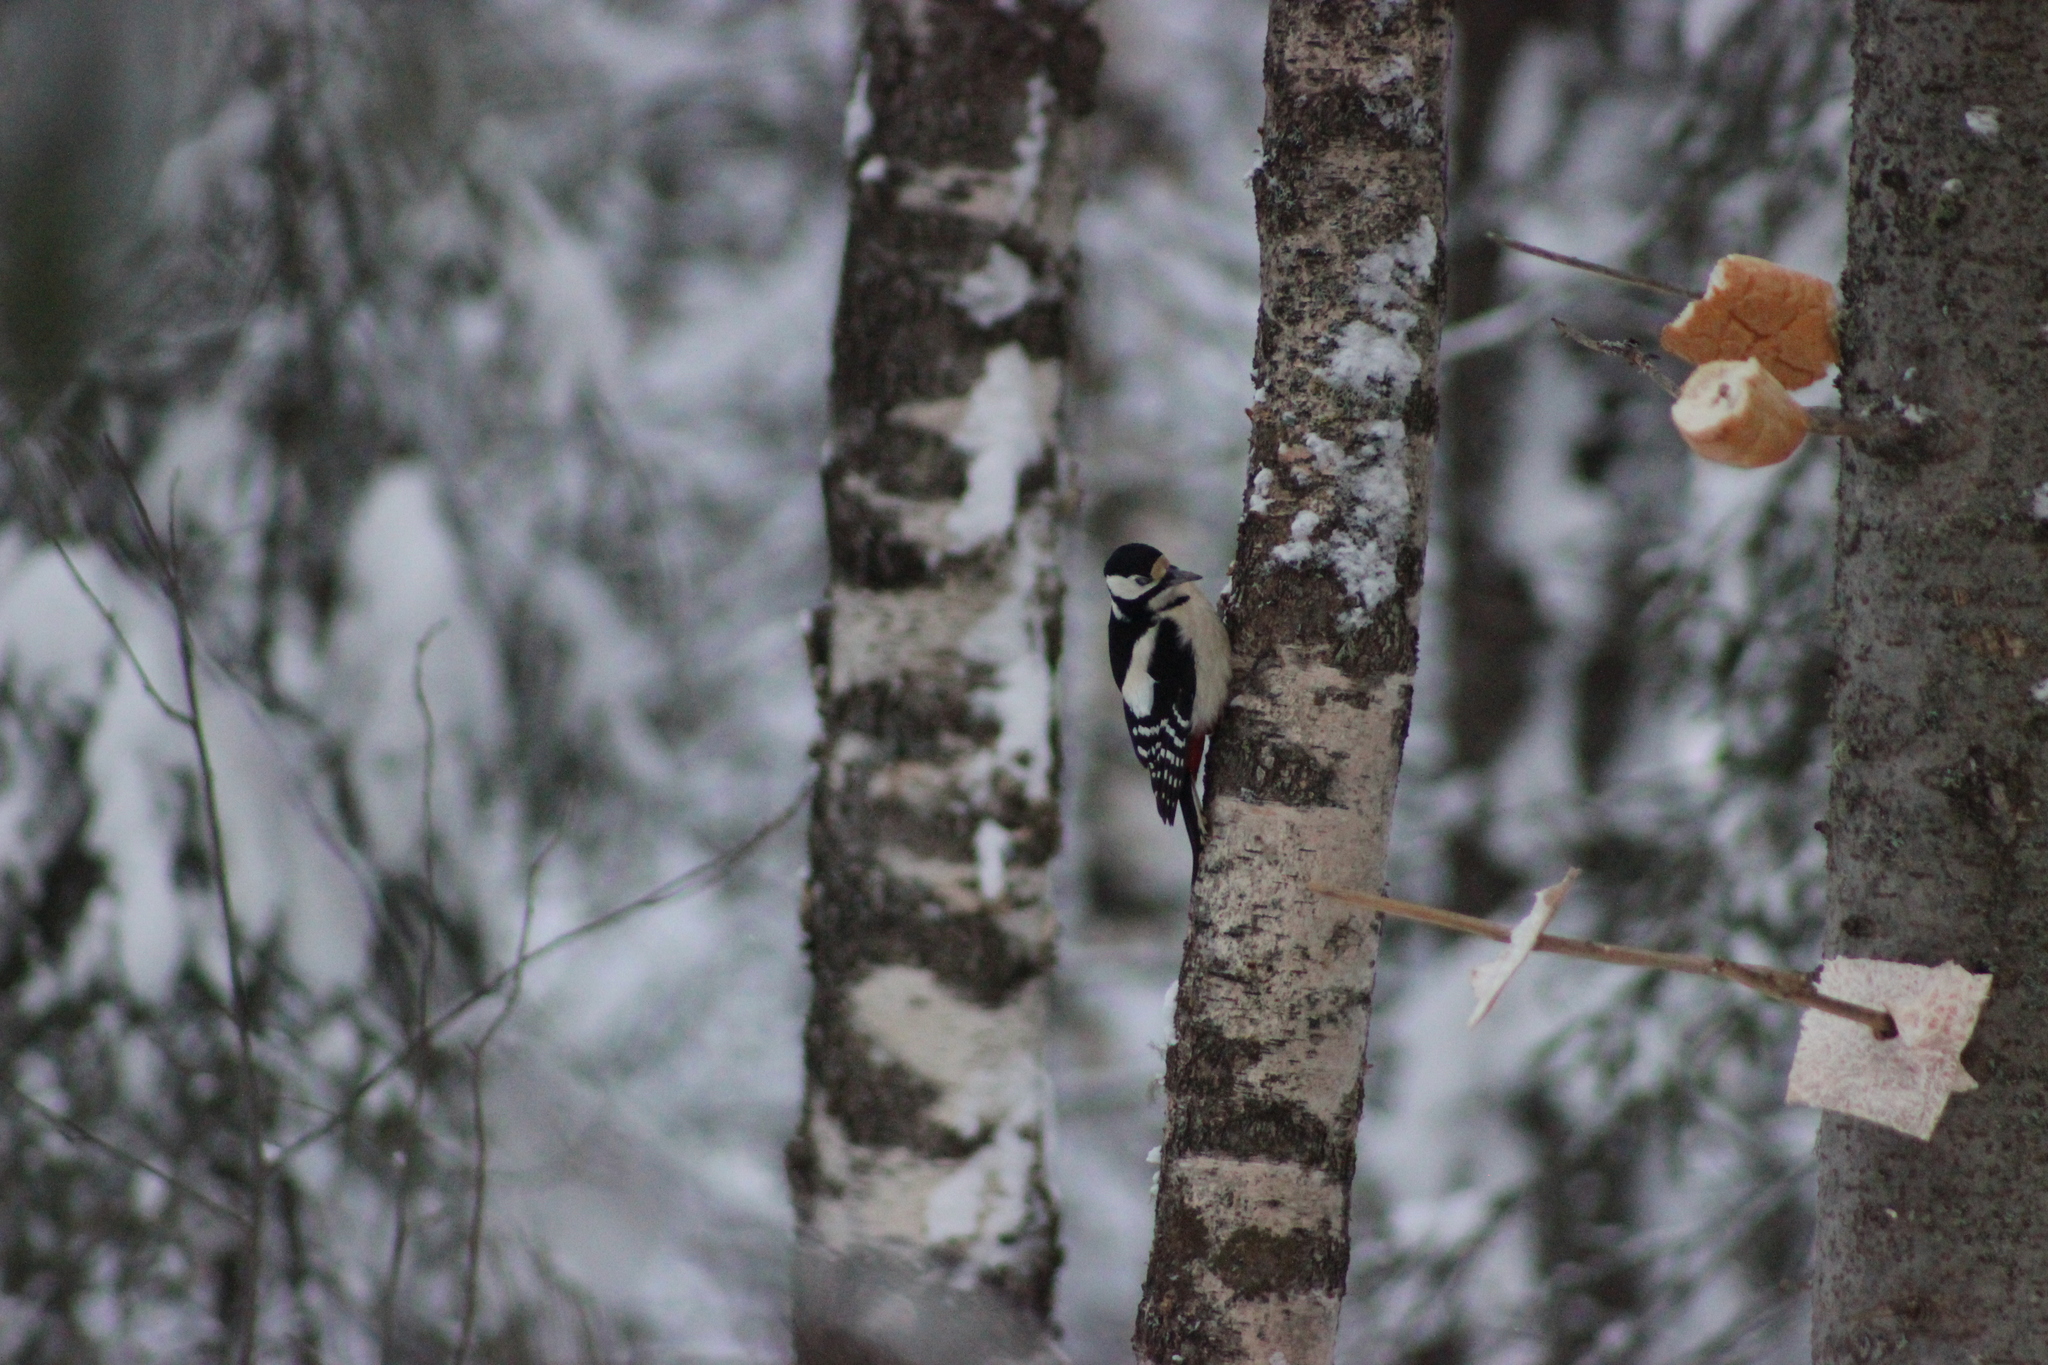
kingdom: Animalia
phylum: Chordata
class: Aves
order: Piciformes
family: Picidae
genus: Dendrocopos
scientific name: Dendrocopos major
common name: Great spotted woodpecker
